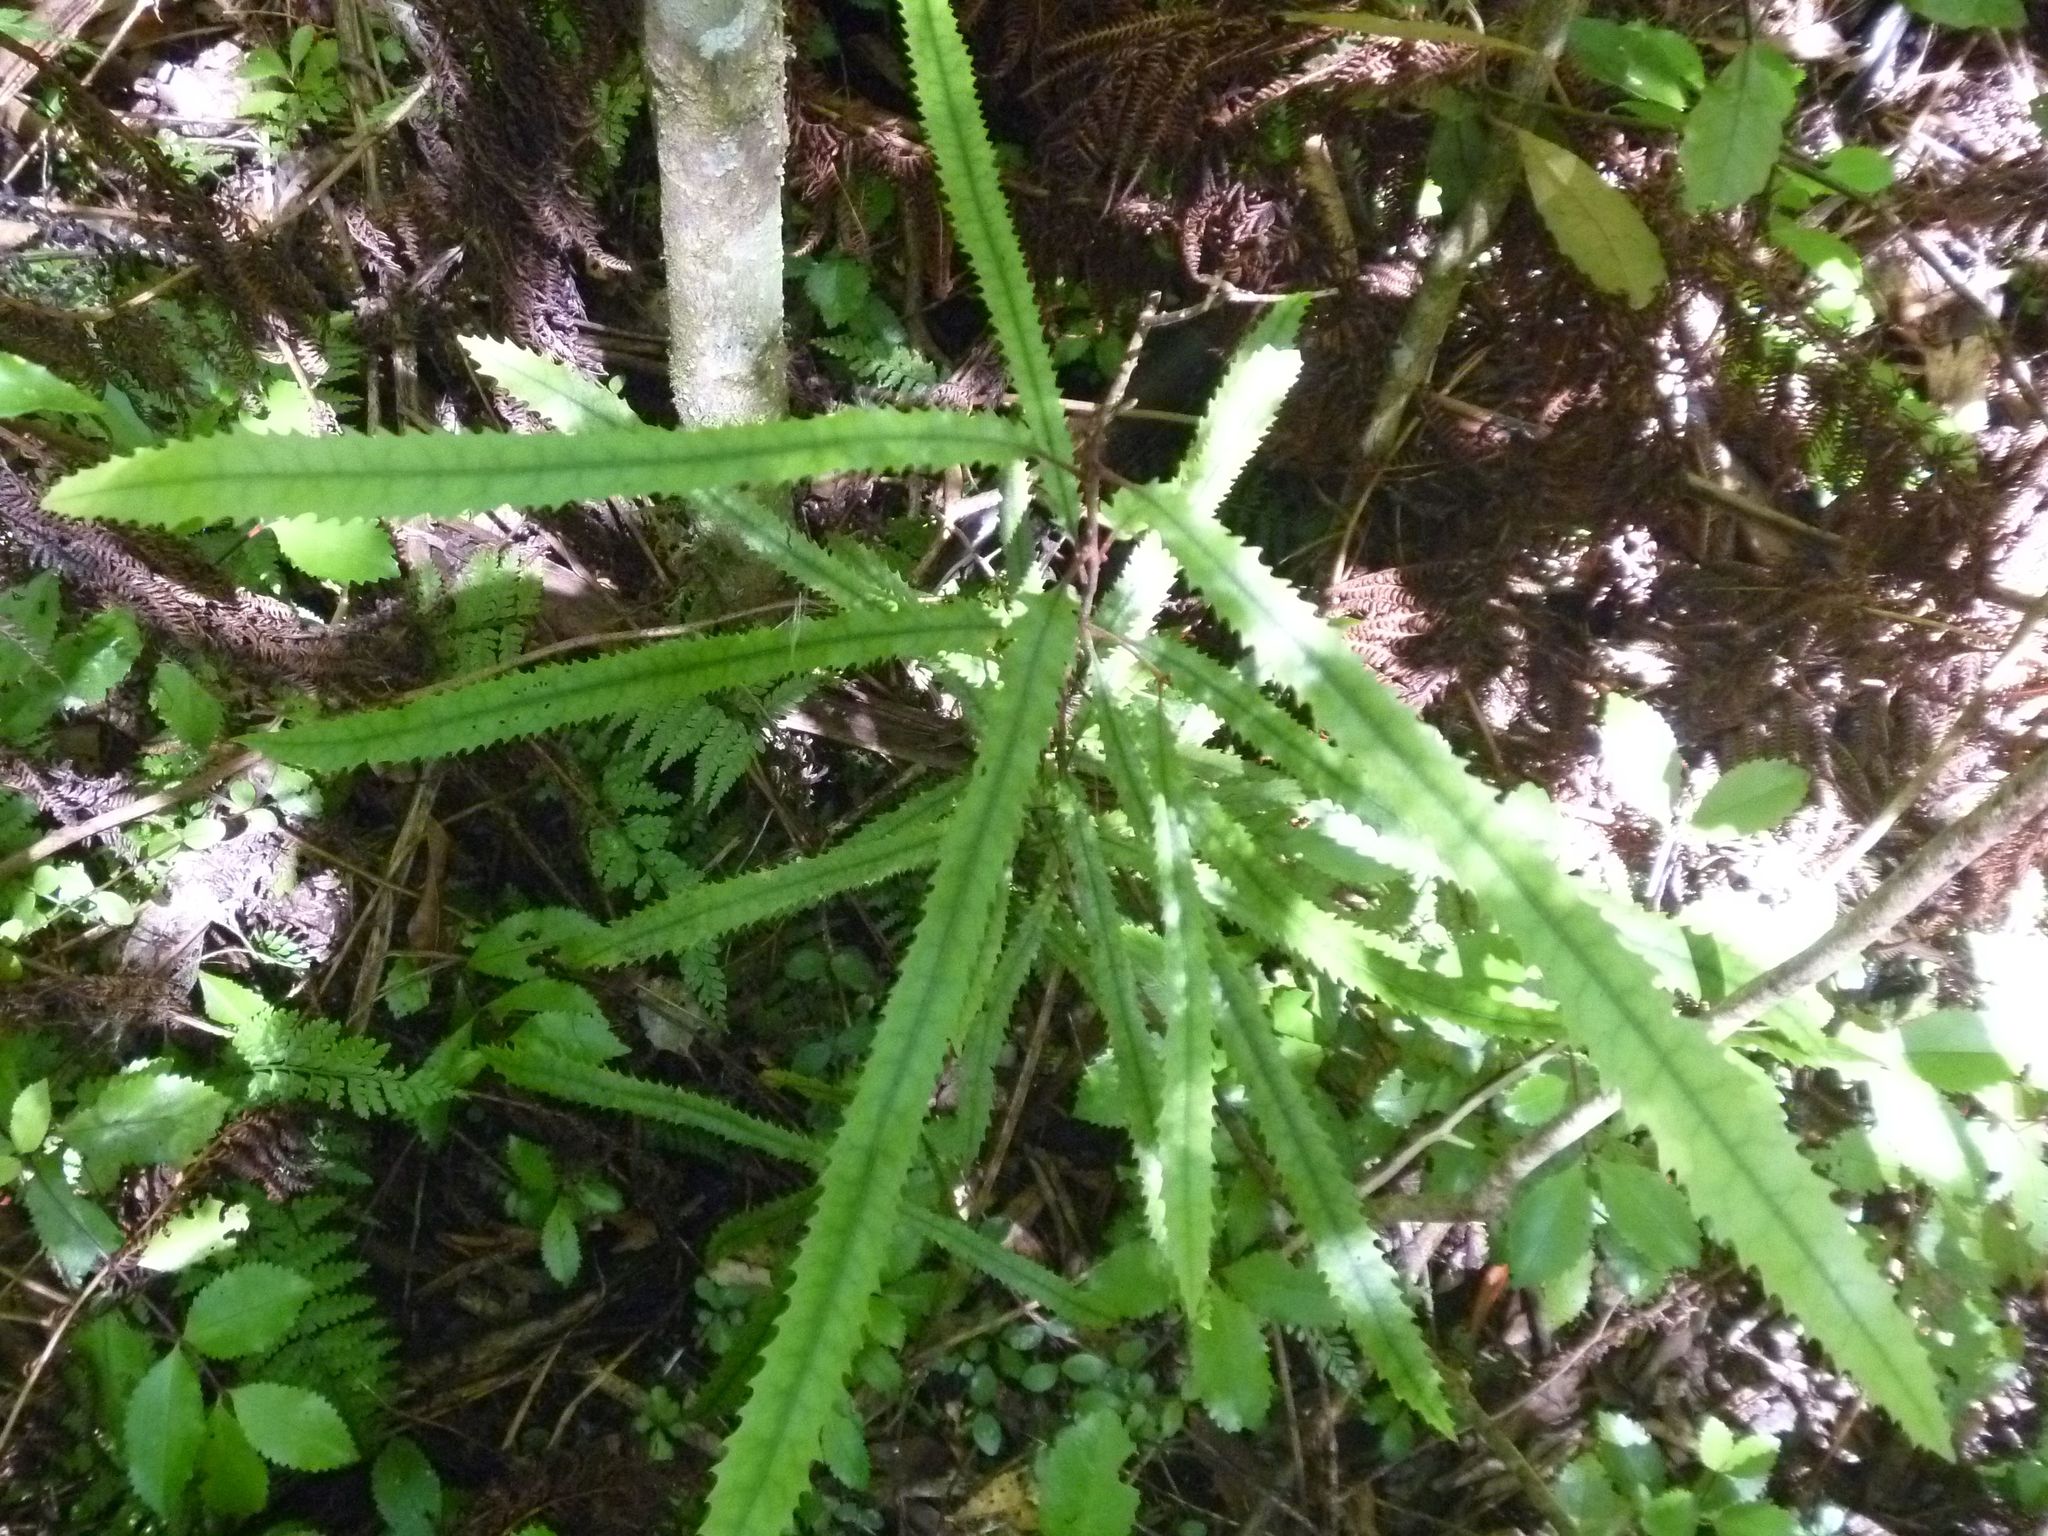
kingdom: Plantae
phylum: Tracheophyta
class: Magnoliopsida
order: Proteales
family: Proteaceae
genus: Knightia
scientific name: Knightia excelsa
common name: New zealand-honeysuckle
